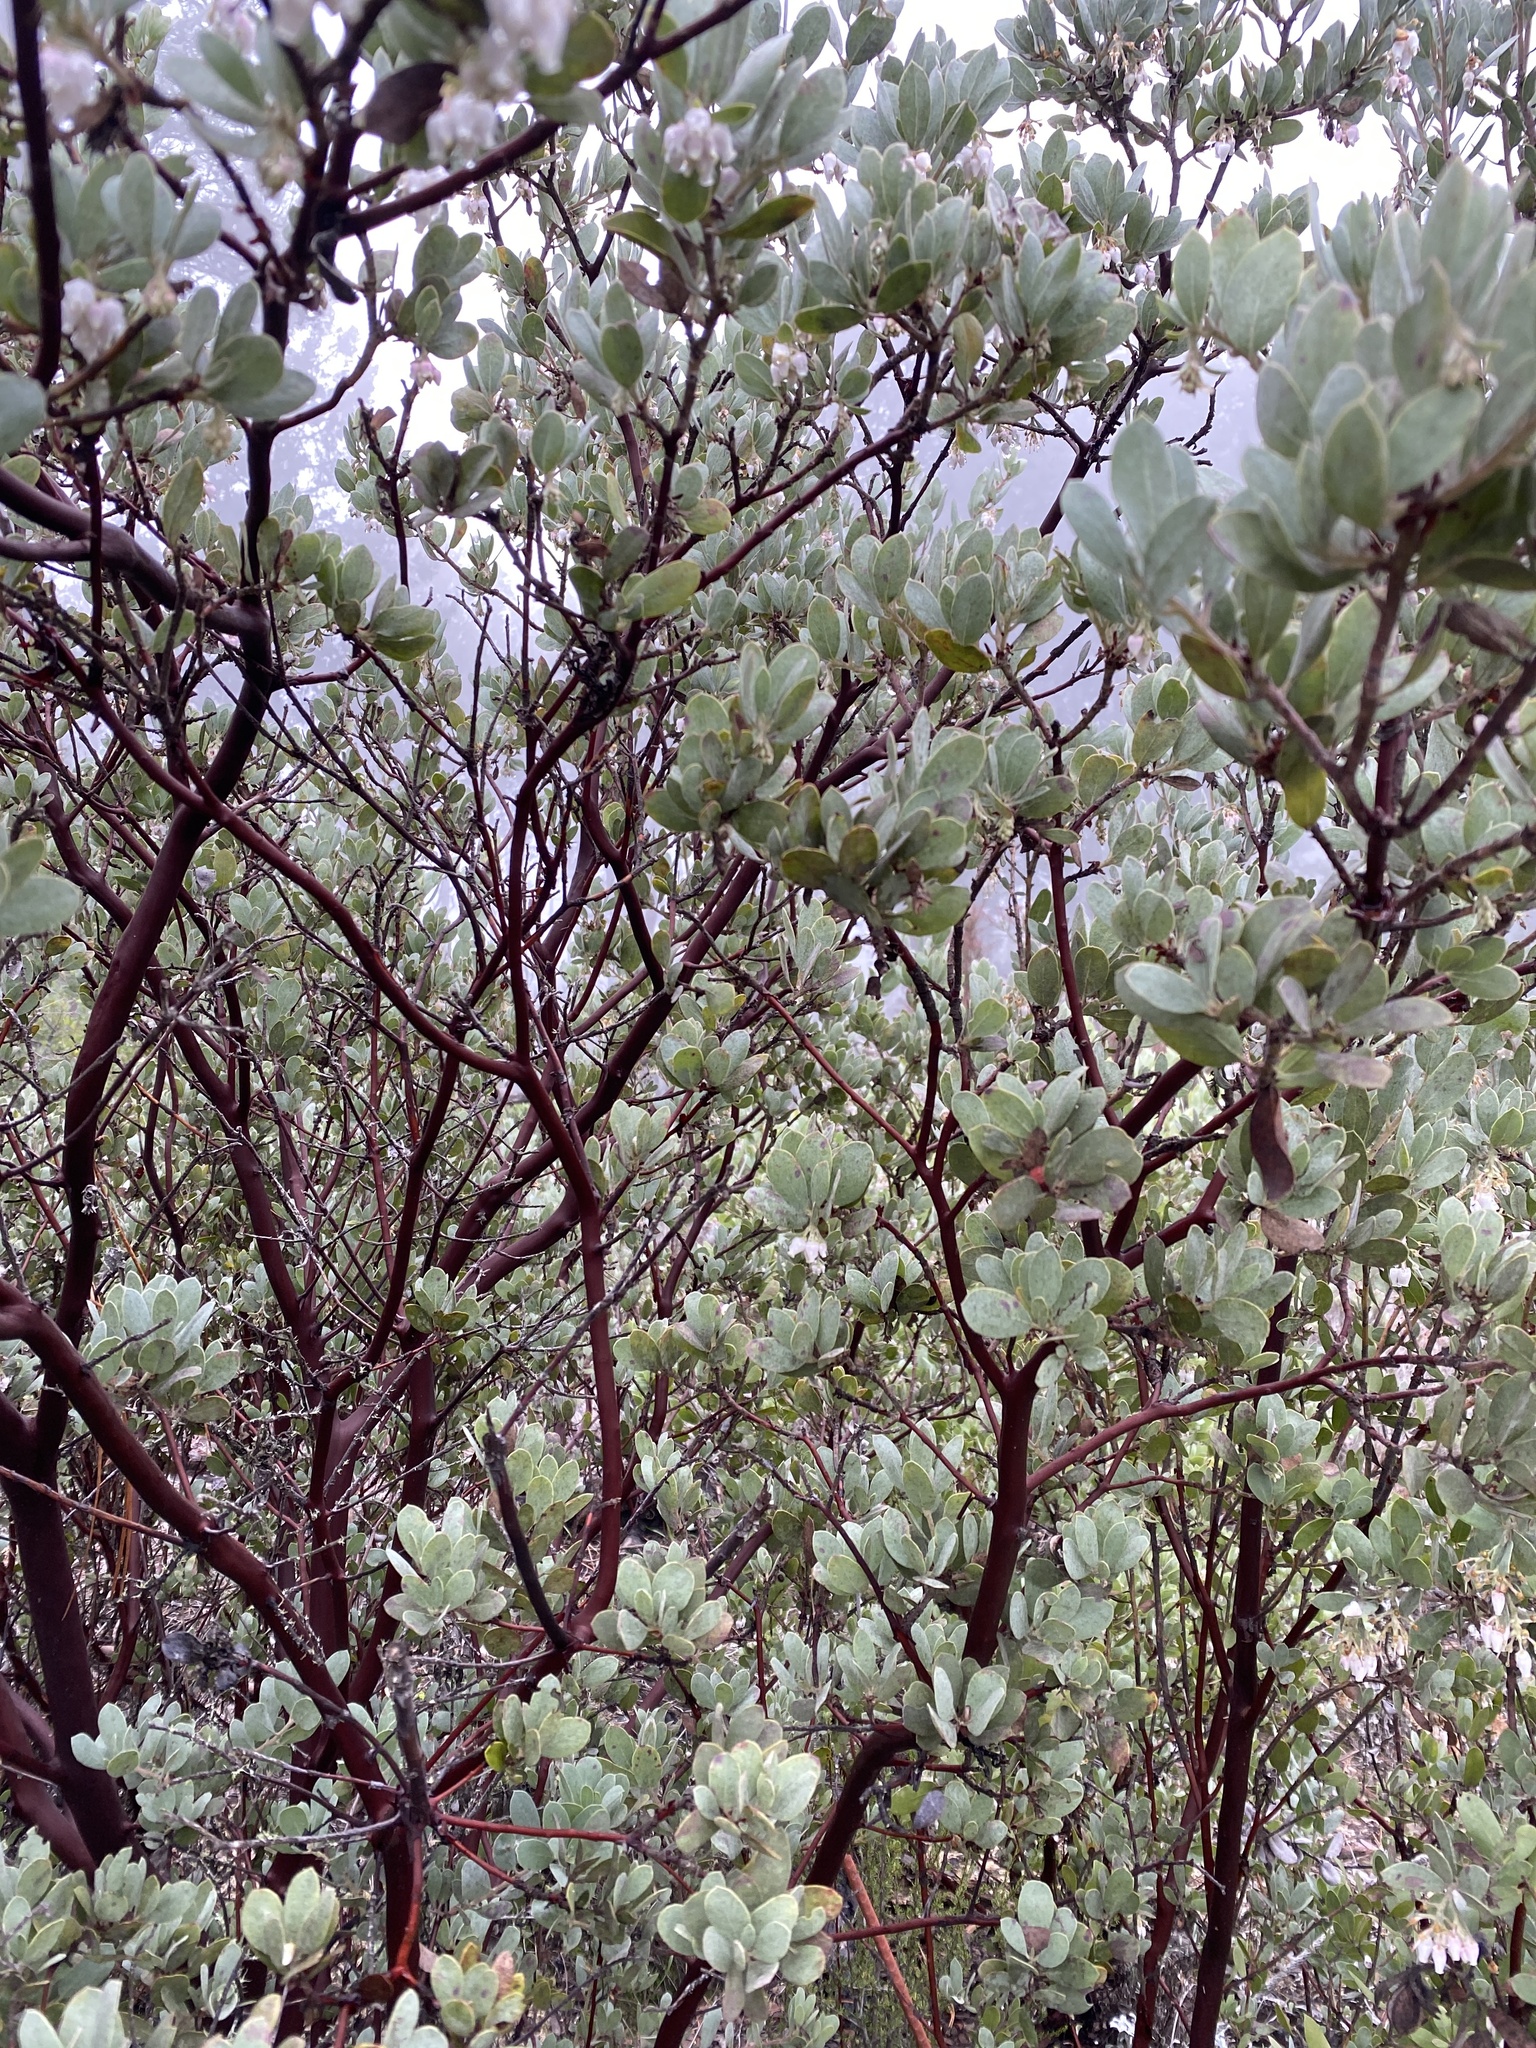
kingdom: Plantae
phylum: Tracheophyta
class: Magnoliopsida
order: Ericales
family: Ericaceae
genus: Arctostaphylos
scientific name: Arctostaphylos silvicola
